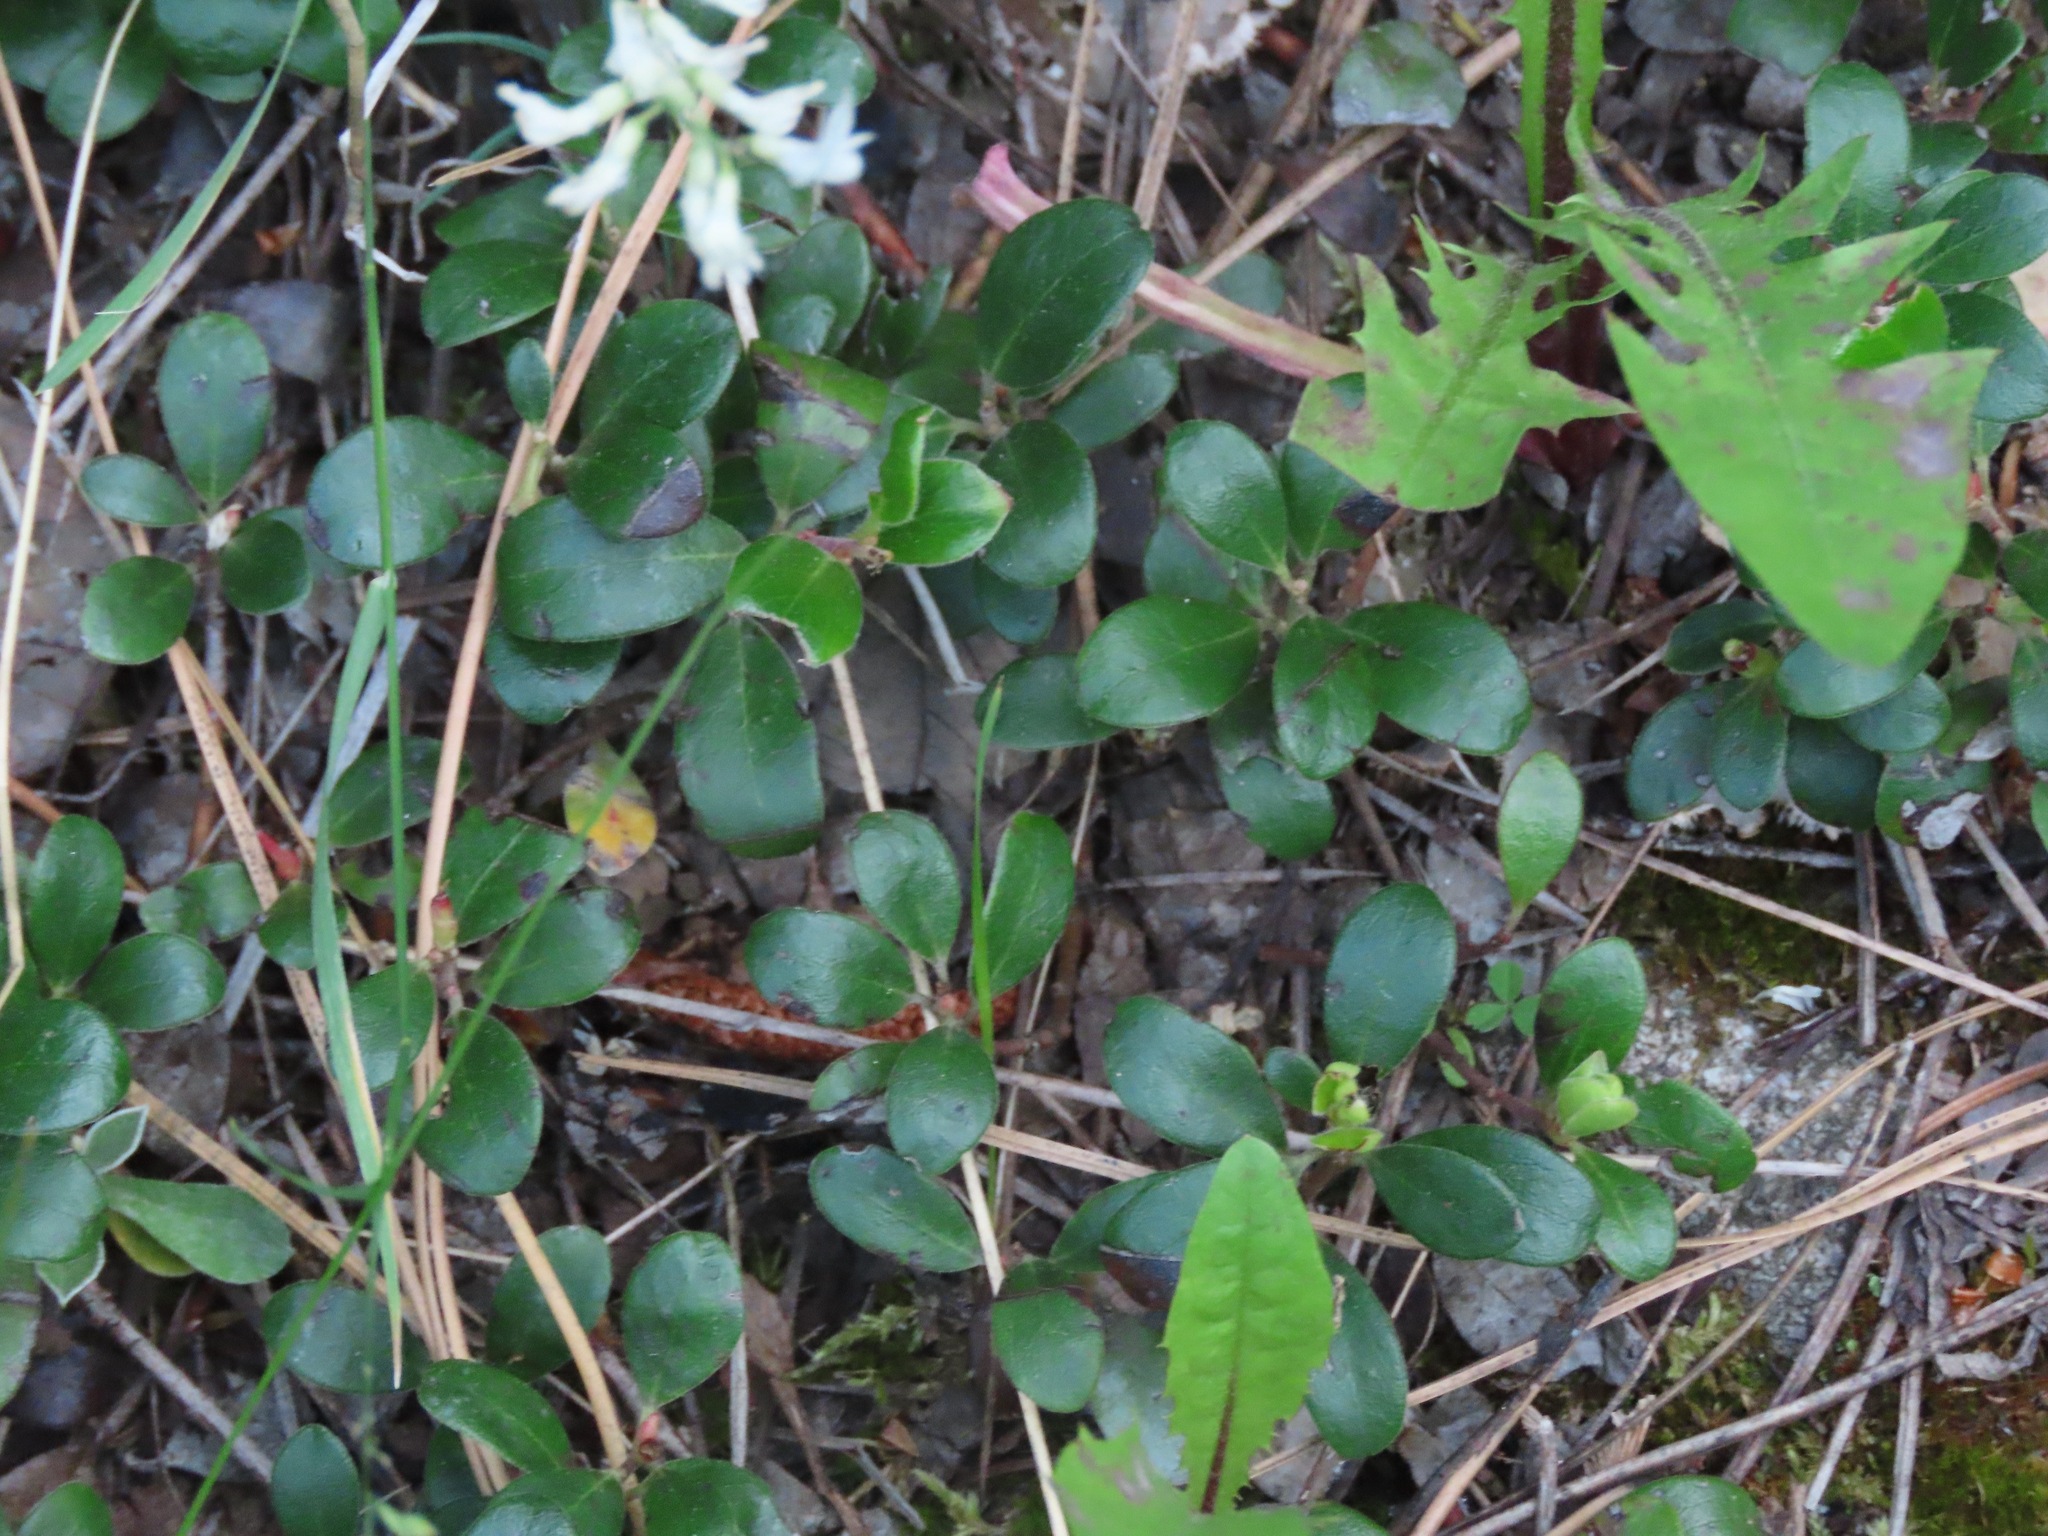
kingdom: Plantae
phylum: Tracheophyta
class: Magnoliopsida
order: Ericales
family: Ericaceae
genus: Arctostaphylos
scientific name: Arctostaphylos uva-ursi
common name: Bearberry
